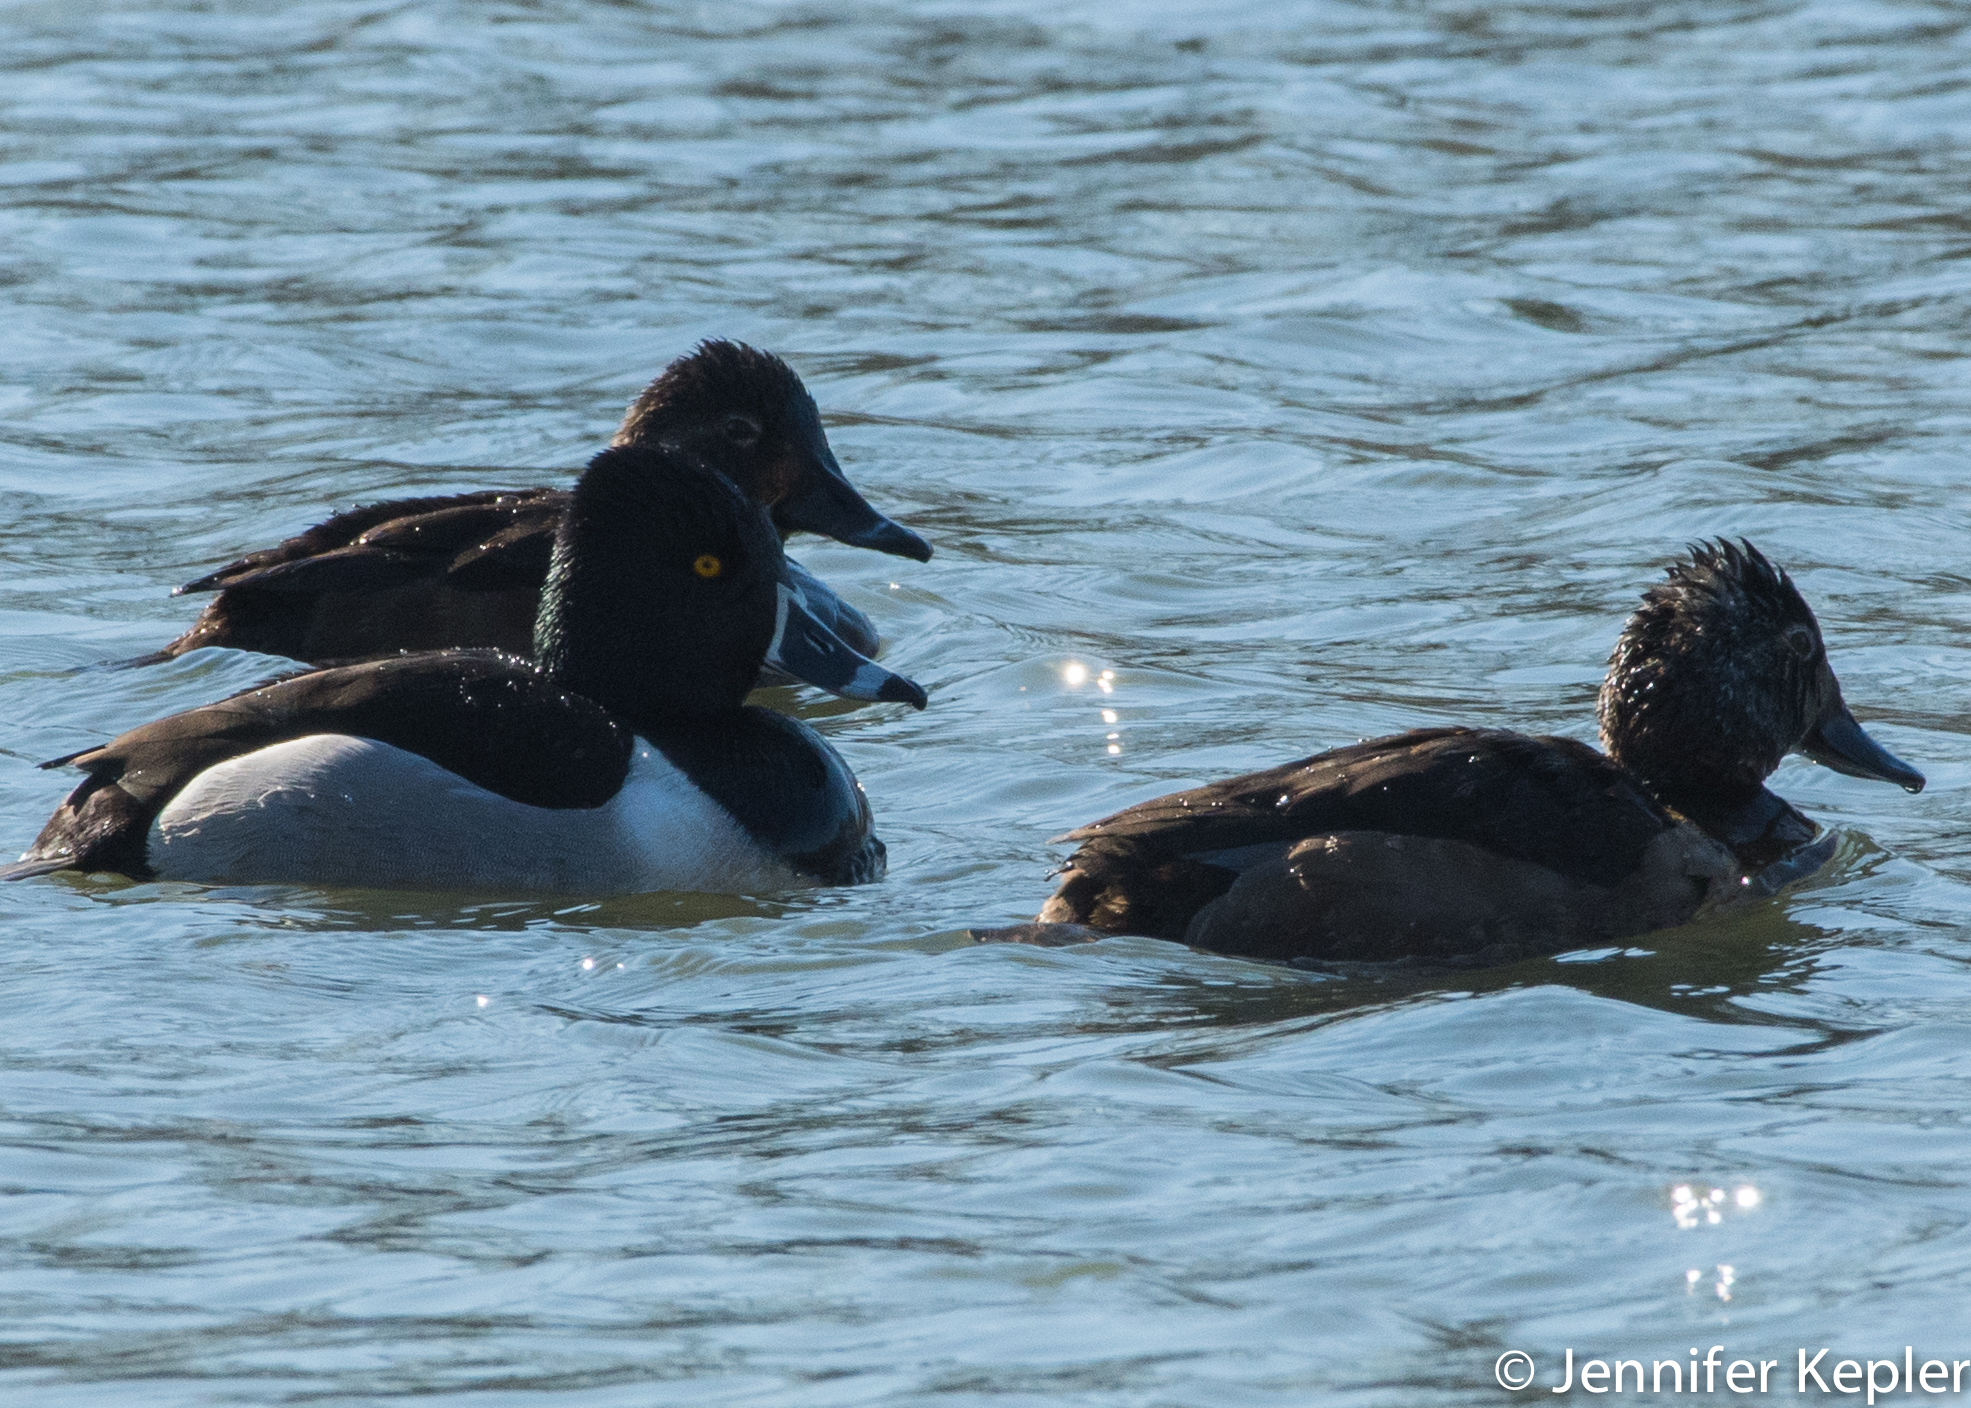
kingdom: Animalia
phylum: Chordata
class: Aves
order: Anseriformes
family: Anatidae
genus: Aythya
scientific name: Aythya collaris
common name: Ring-necked duck
